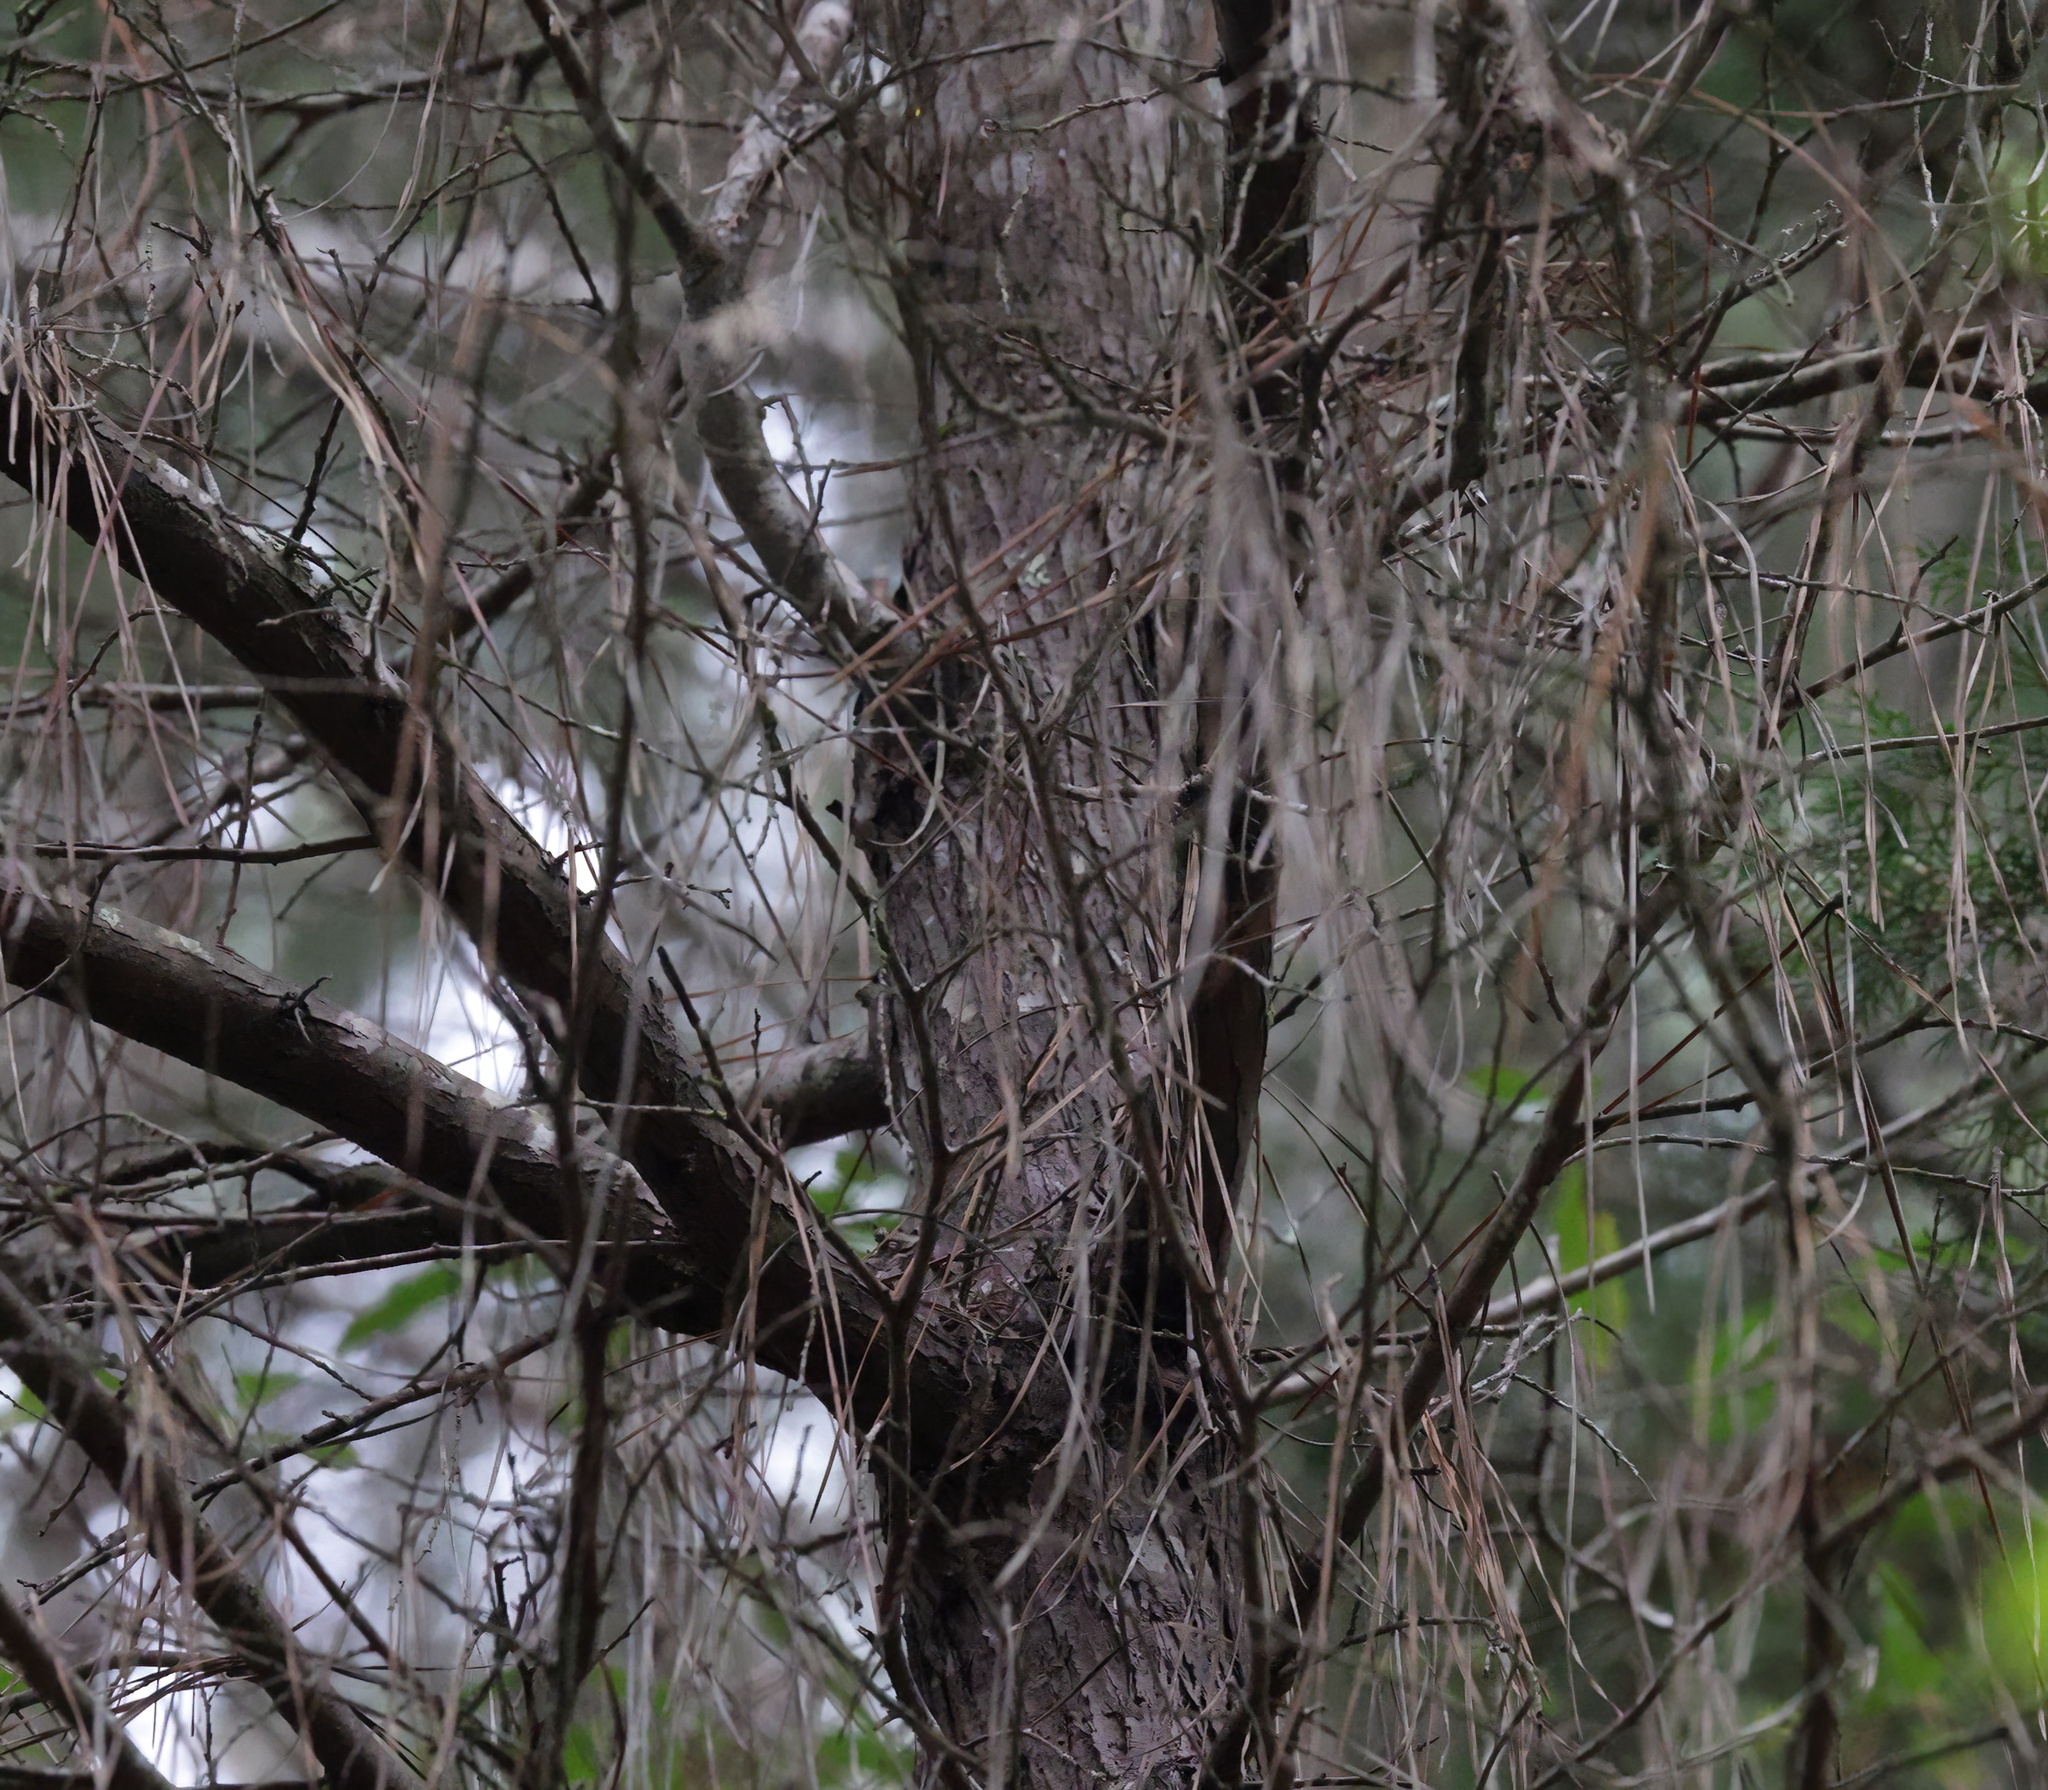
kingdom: Plantae
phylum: Tracheophyta
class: Pinopsida
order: Pinales
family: Cupressaceae
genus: Juniperus
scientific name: Juniperus virginiana
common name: Red juniper
